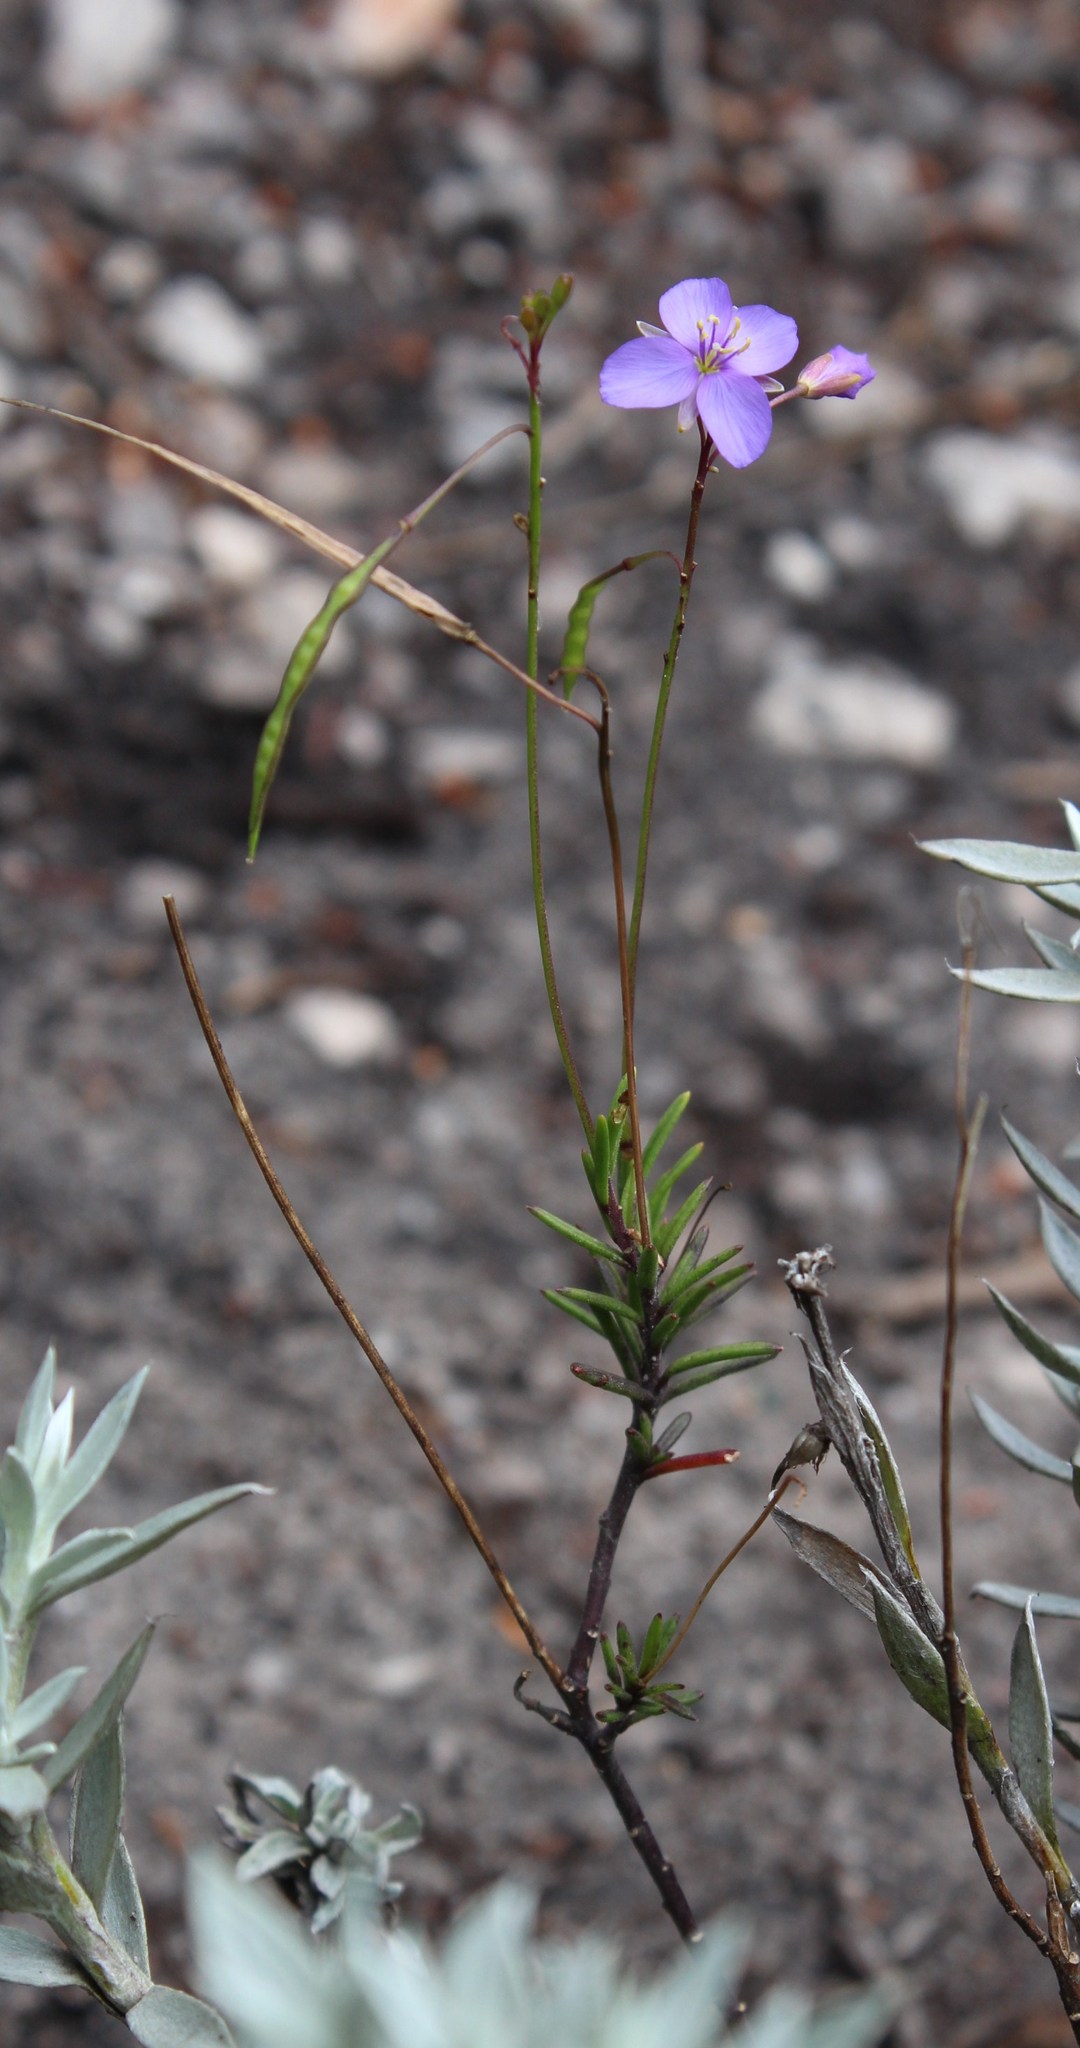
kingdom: Plantae
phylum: Tracheophyta
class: Magnoliopsida
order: Brassicales
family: Brassicaceae
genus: Heliophila
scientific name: Heliophila subulata
